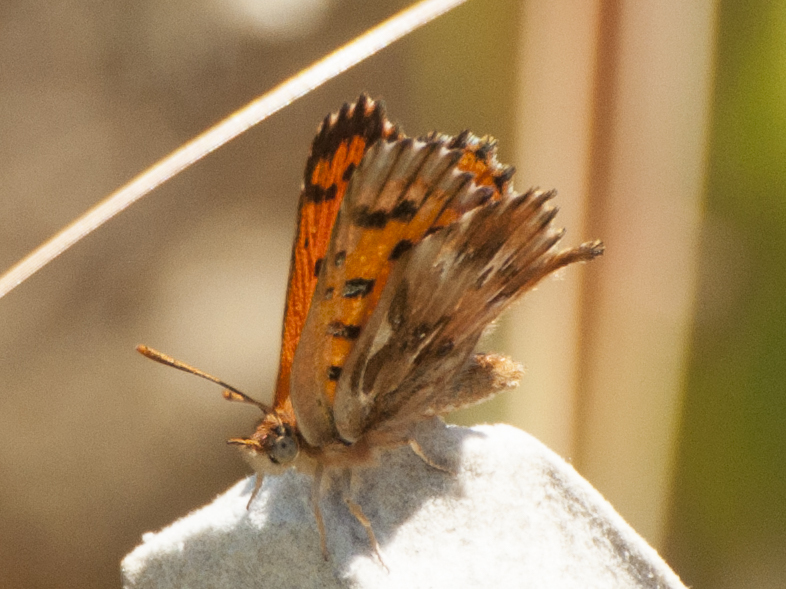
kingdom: Animalia
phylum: Arthropoda
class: Insecta
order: Lepidoptera
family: Lycaenidae
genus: Chrysoritis
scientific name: Chrysoritis
